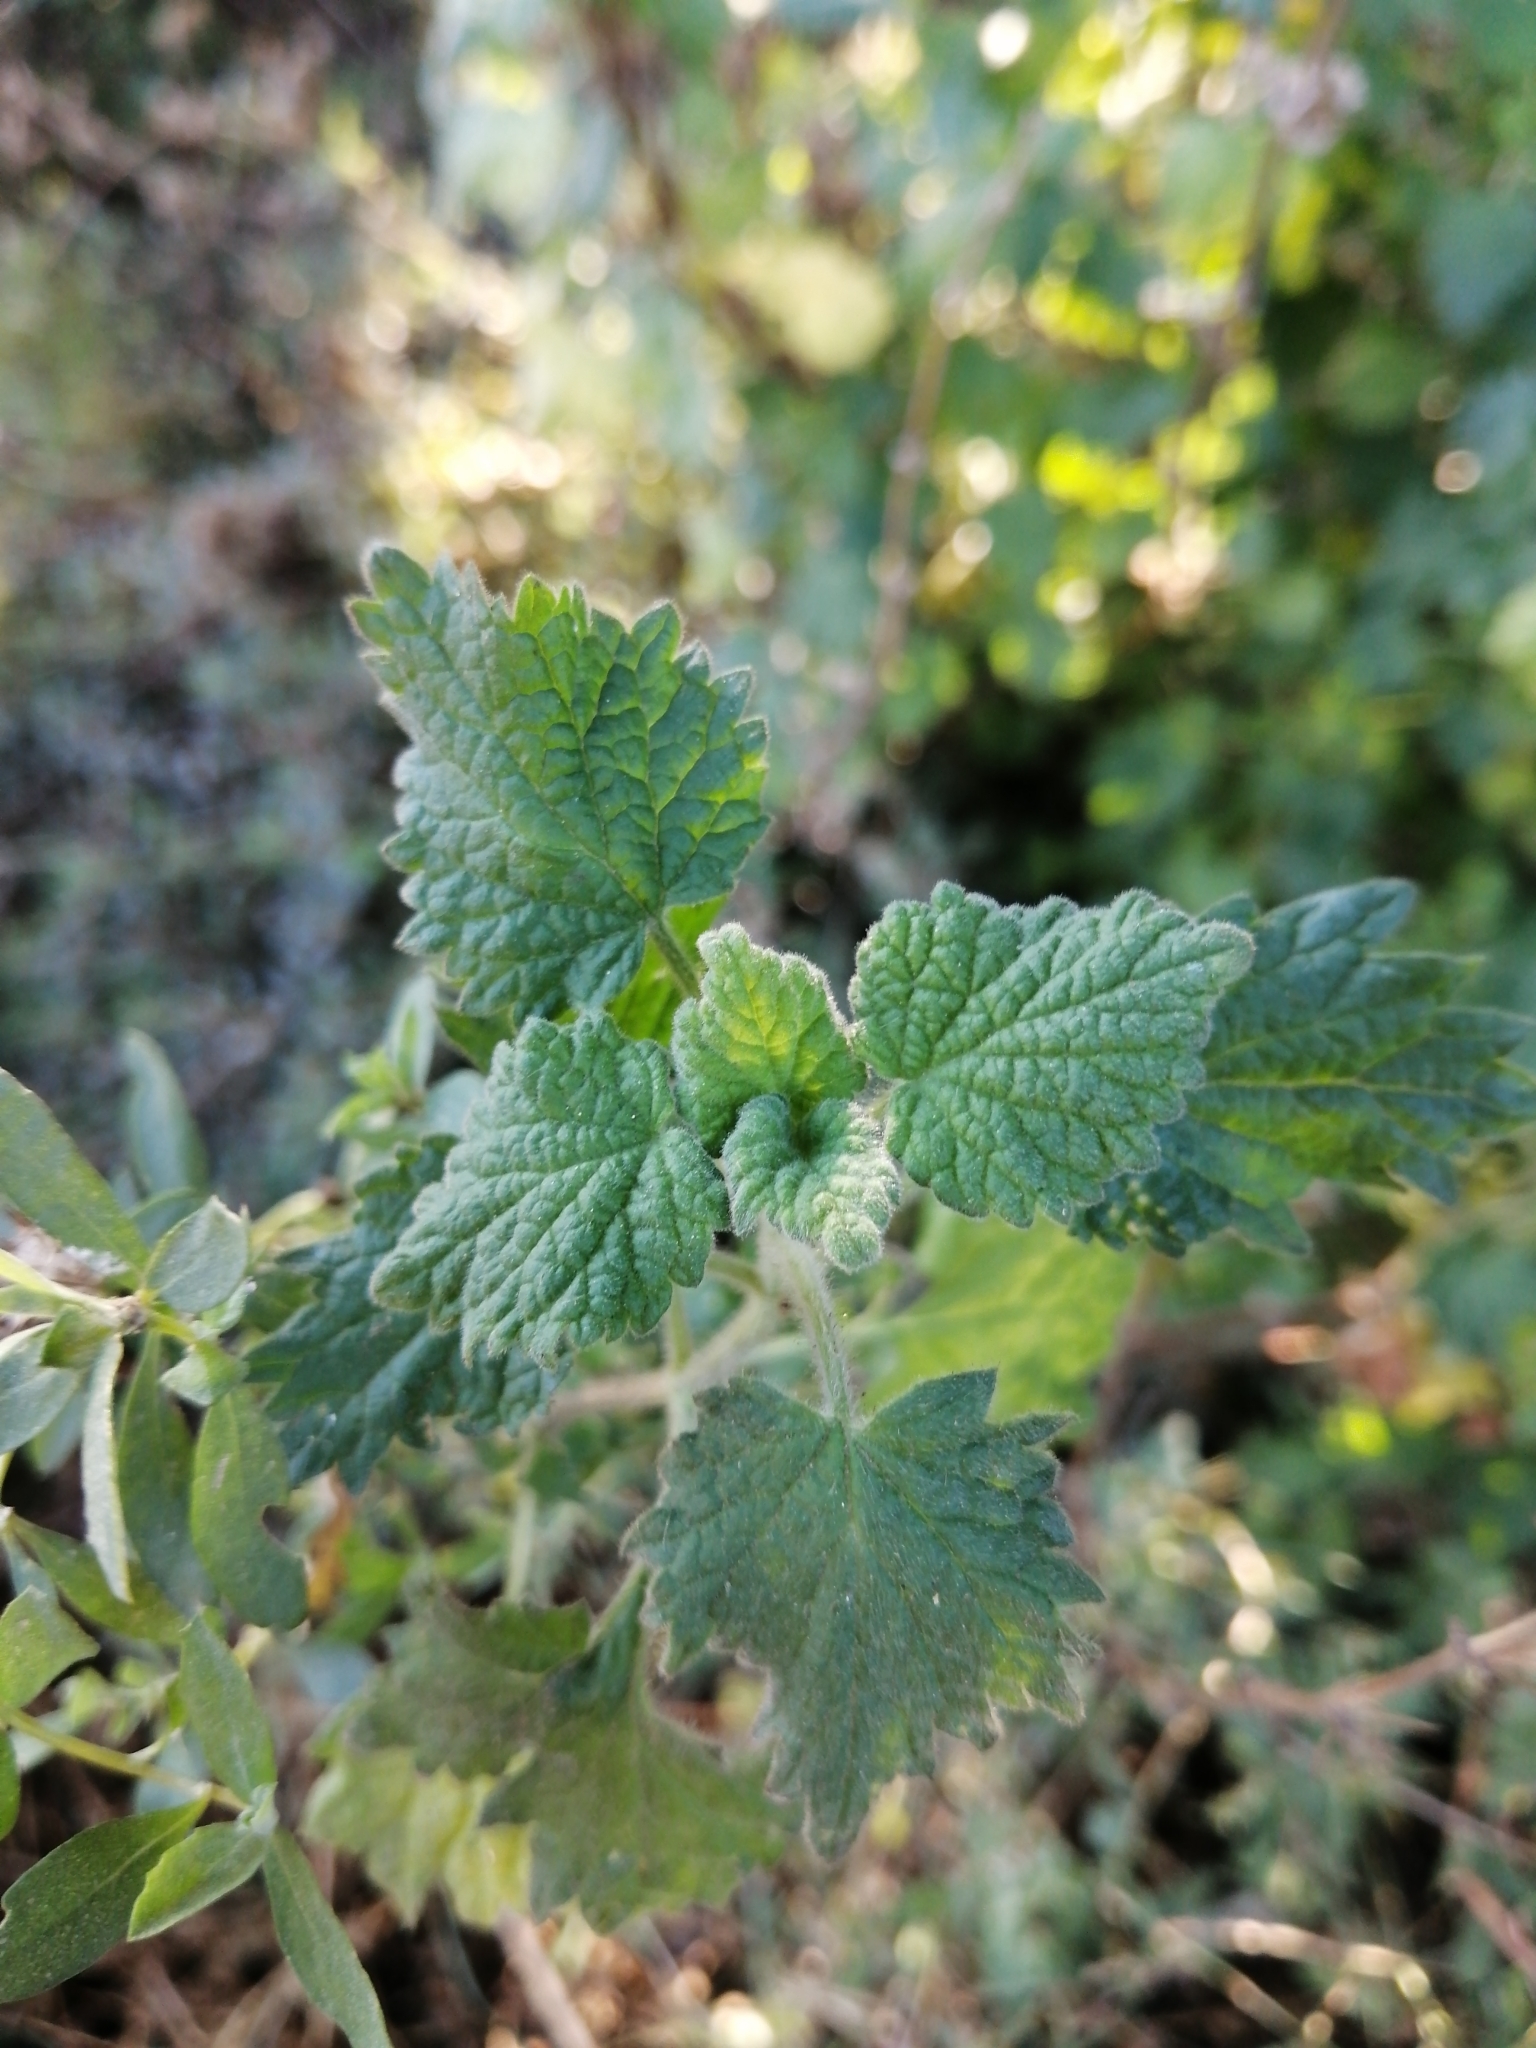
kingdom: Plantae
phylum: Tracheophyta
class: Magnoliopsida
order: Lamiales
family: Lamiaceae
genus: Pseudodictamnus
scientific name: Pseudodictamnus africanus
